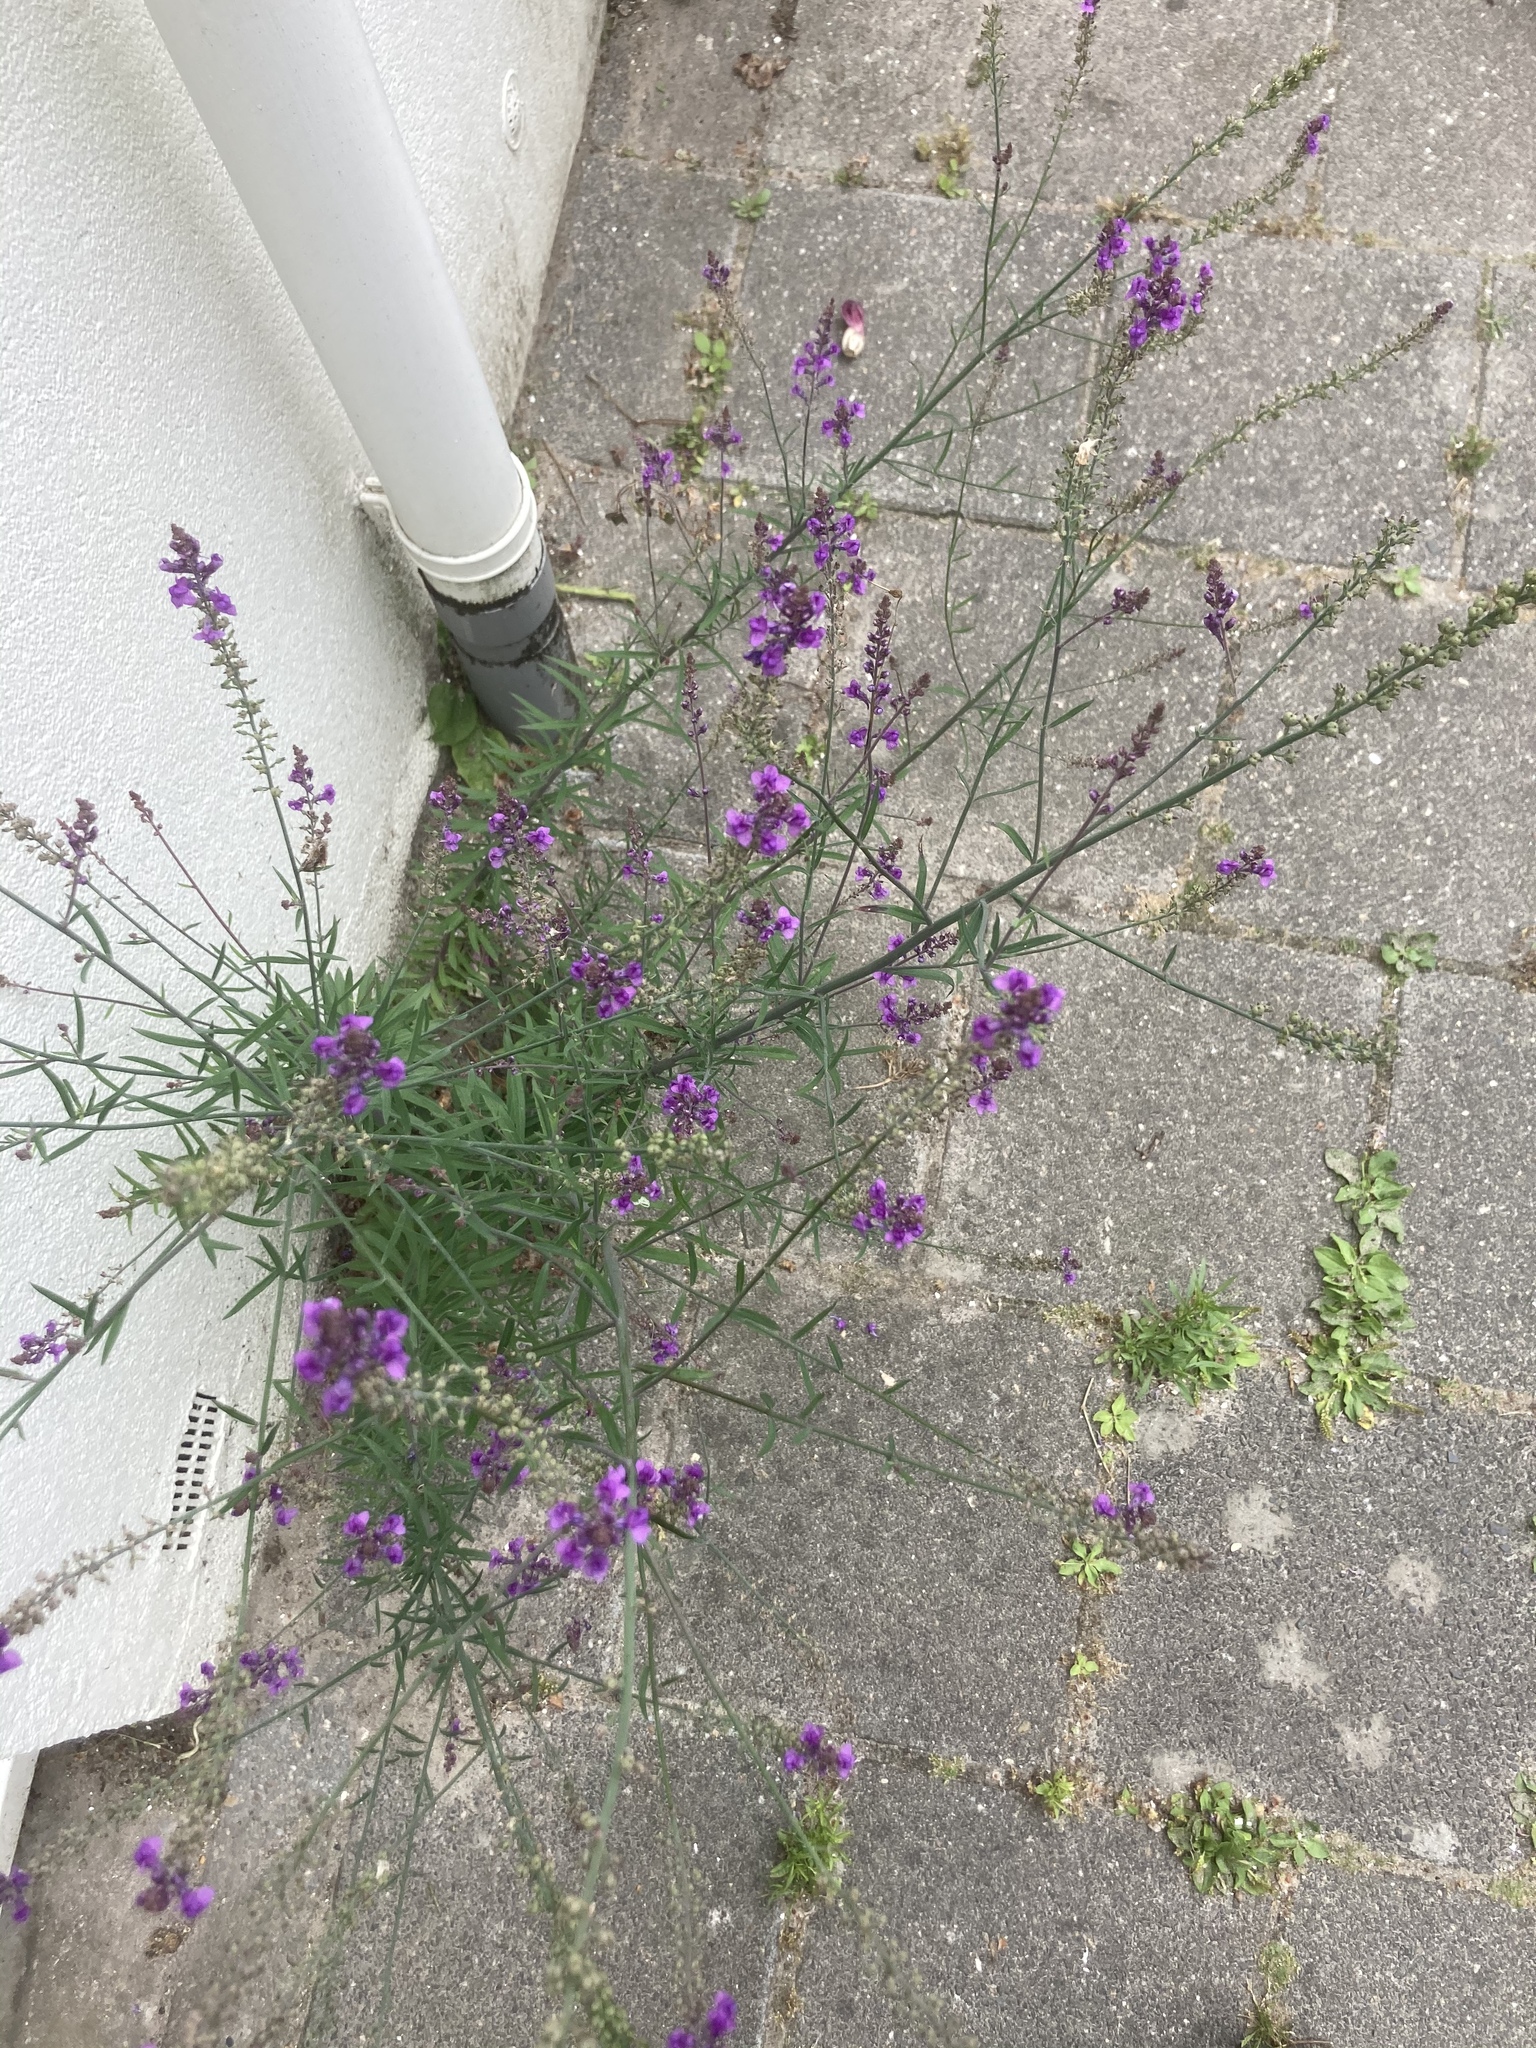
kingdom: Plantae
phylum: Tracheophyta
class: Magnoliopsida
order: Lamiales
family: Plantaginaceae
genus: Linaria
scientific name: Linaria purpurea
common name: Purple toadflax
